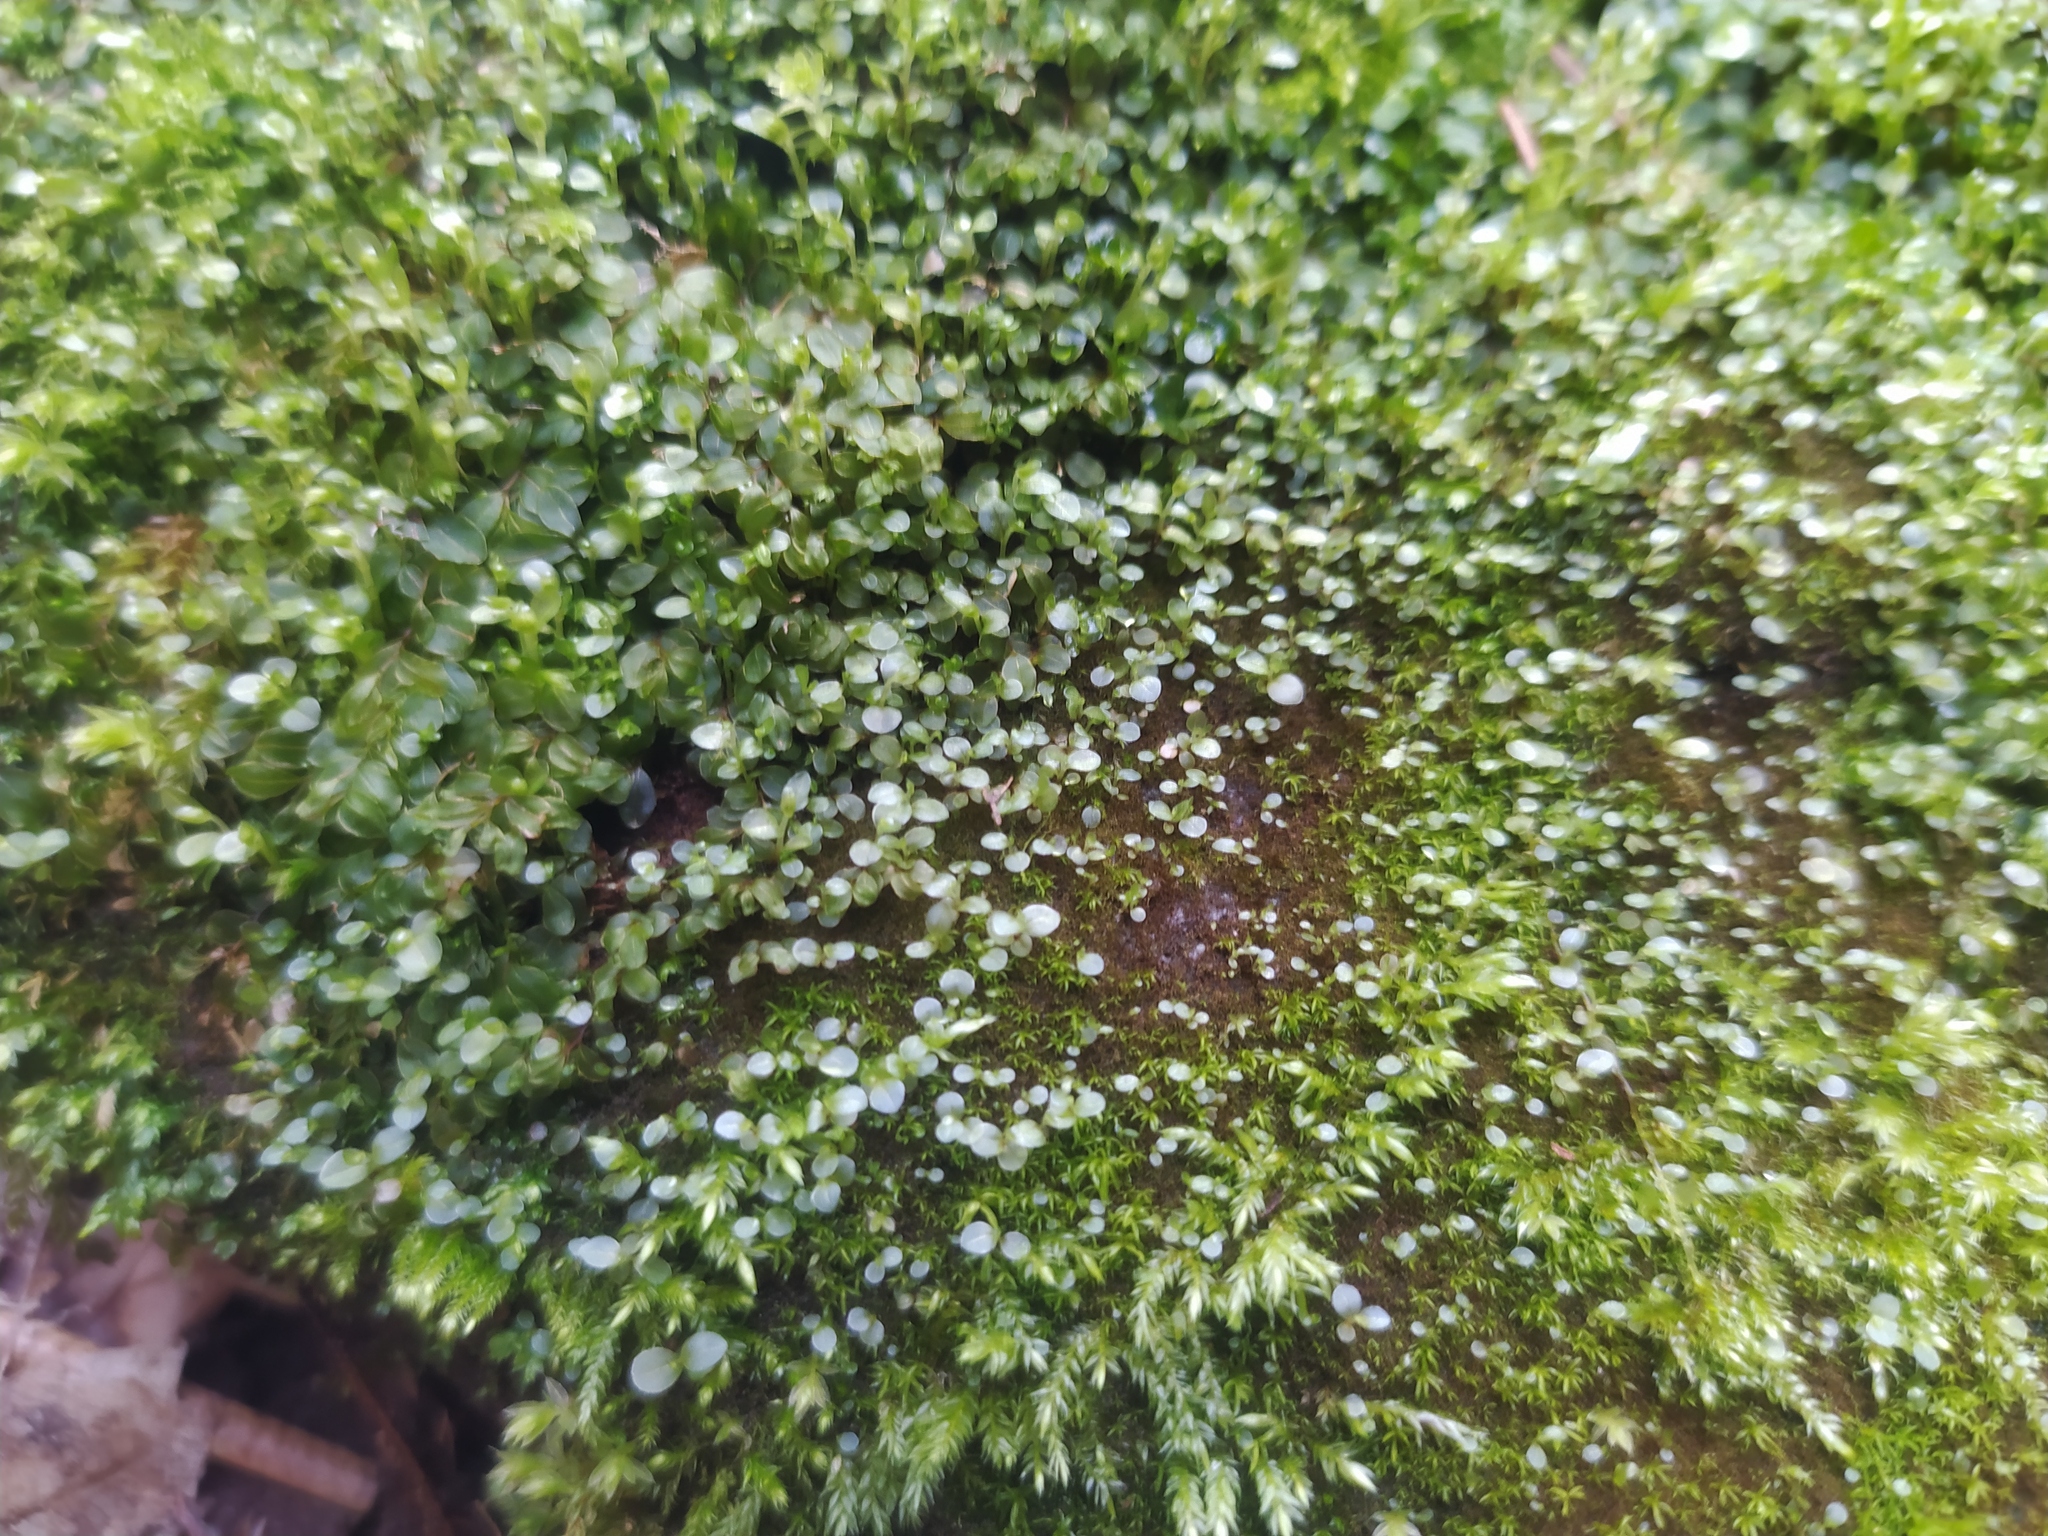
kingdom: Plantae
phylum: Bryophyta
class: Bryopsida
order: Bryales
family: Mniaceae
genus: Rhizomnium
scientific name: Rhizomnium punctatum
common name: Dotted leafy moss
